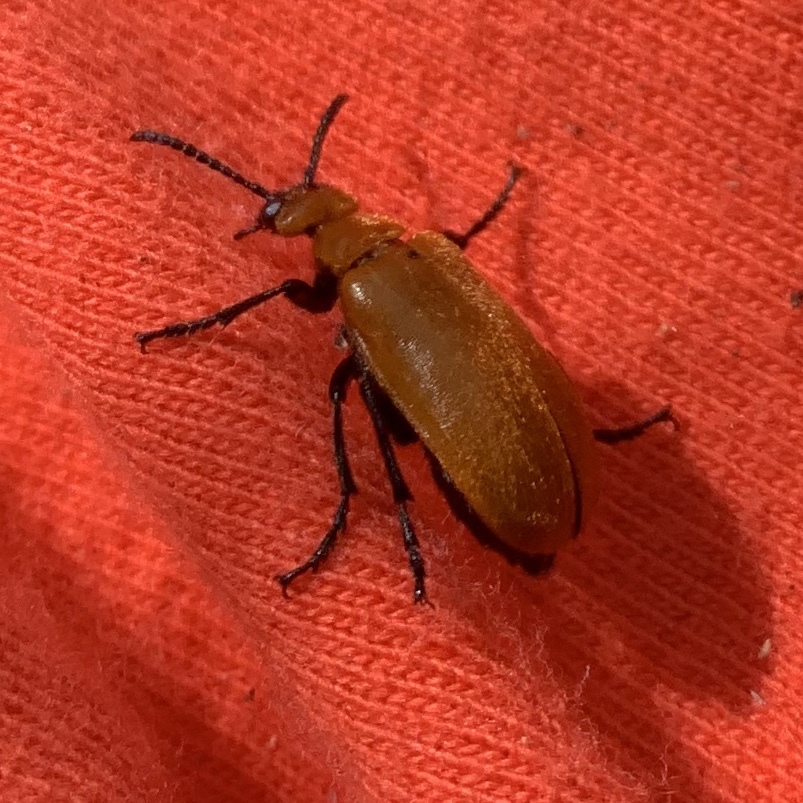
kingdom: Animalia
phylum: Arthropoda
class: Insecta
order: Coleoptera
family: Meloidae
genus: Tetraonyx
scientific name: Tetraonyx frontalis
